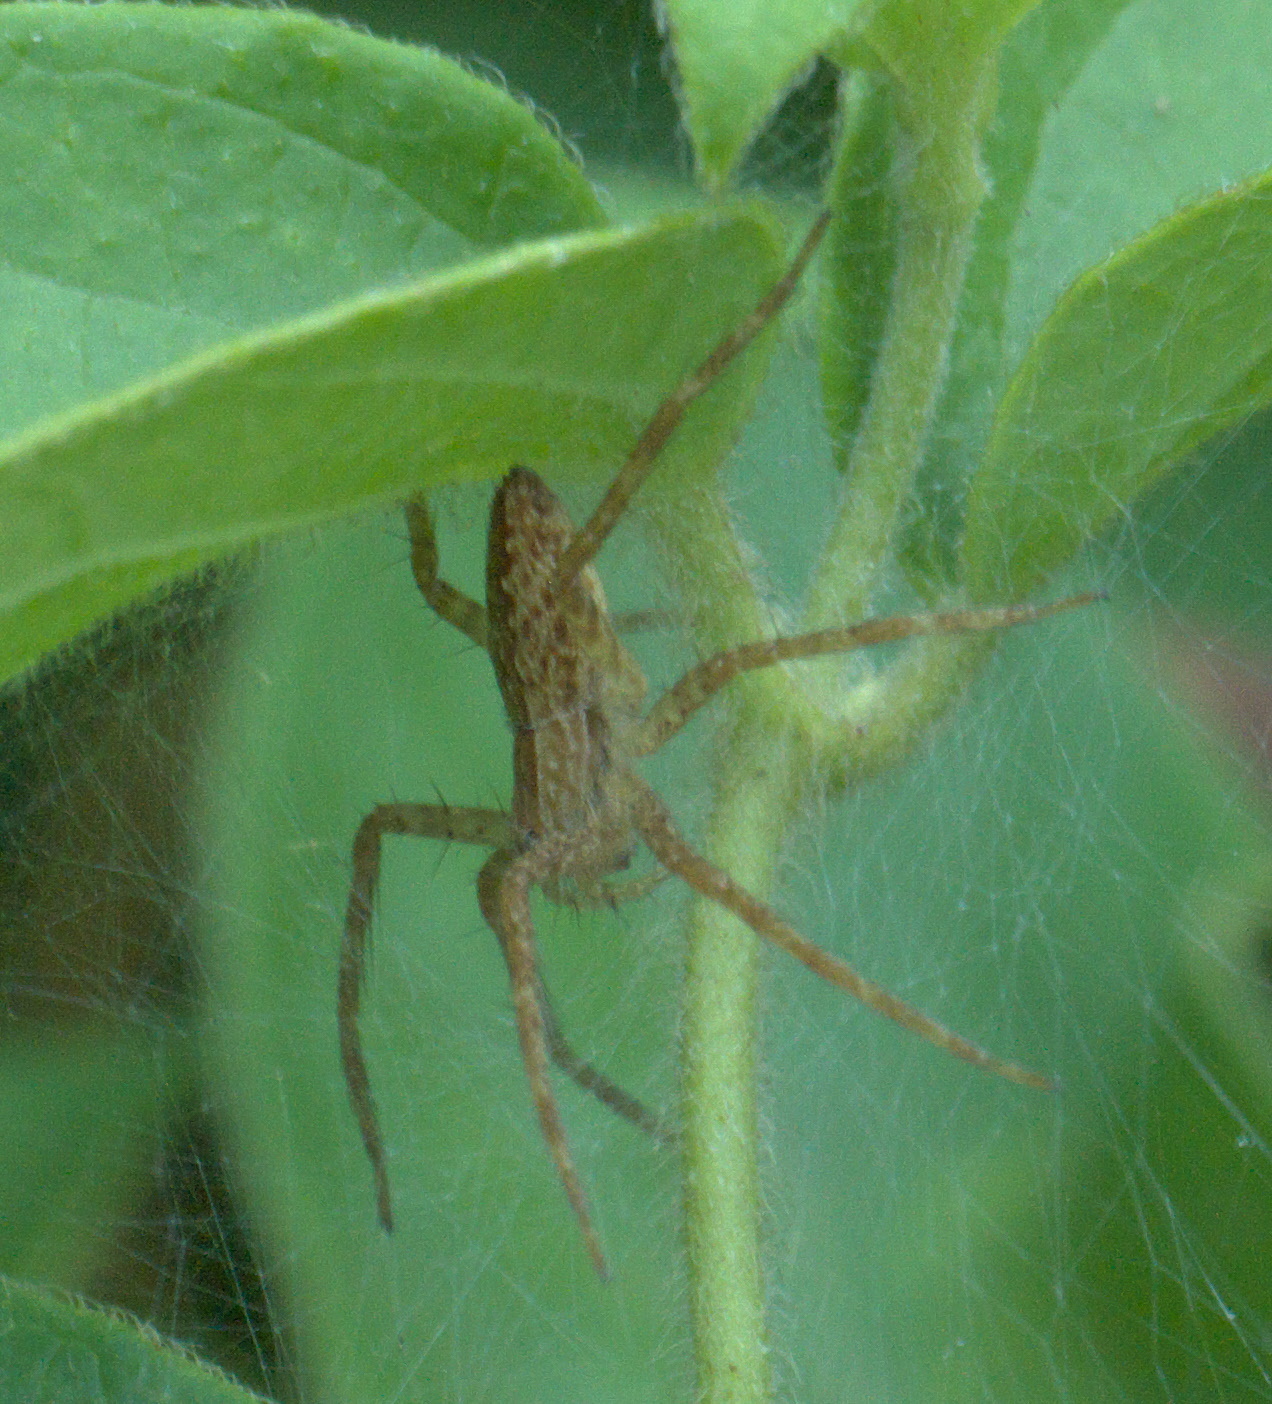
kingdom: Animalia
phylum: Arthropoda
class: Arachnida
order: Araneae
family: Pisauridae
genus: Pisaurina
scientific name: Pisaurina mira
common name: American nursery web spider
